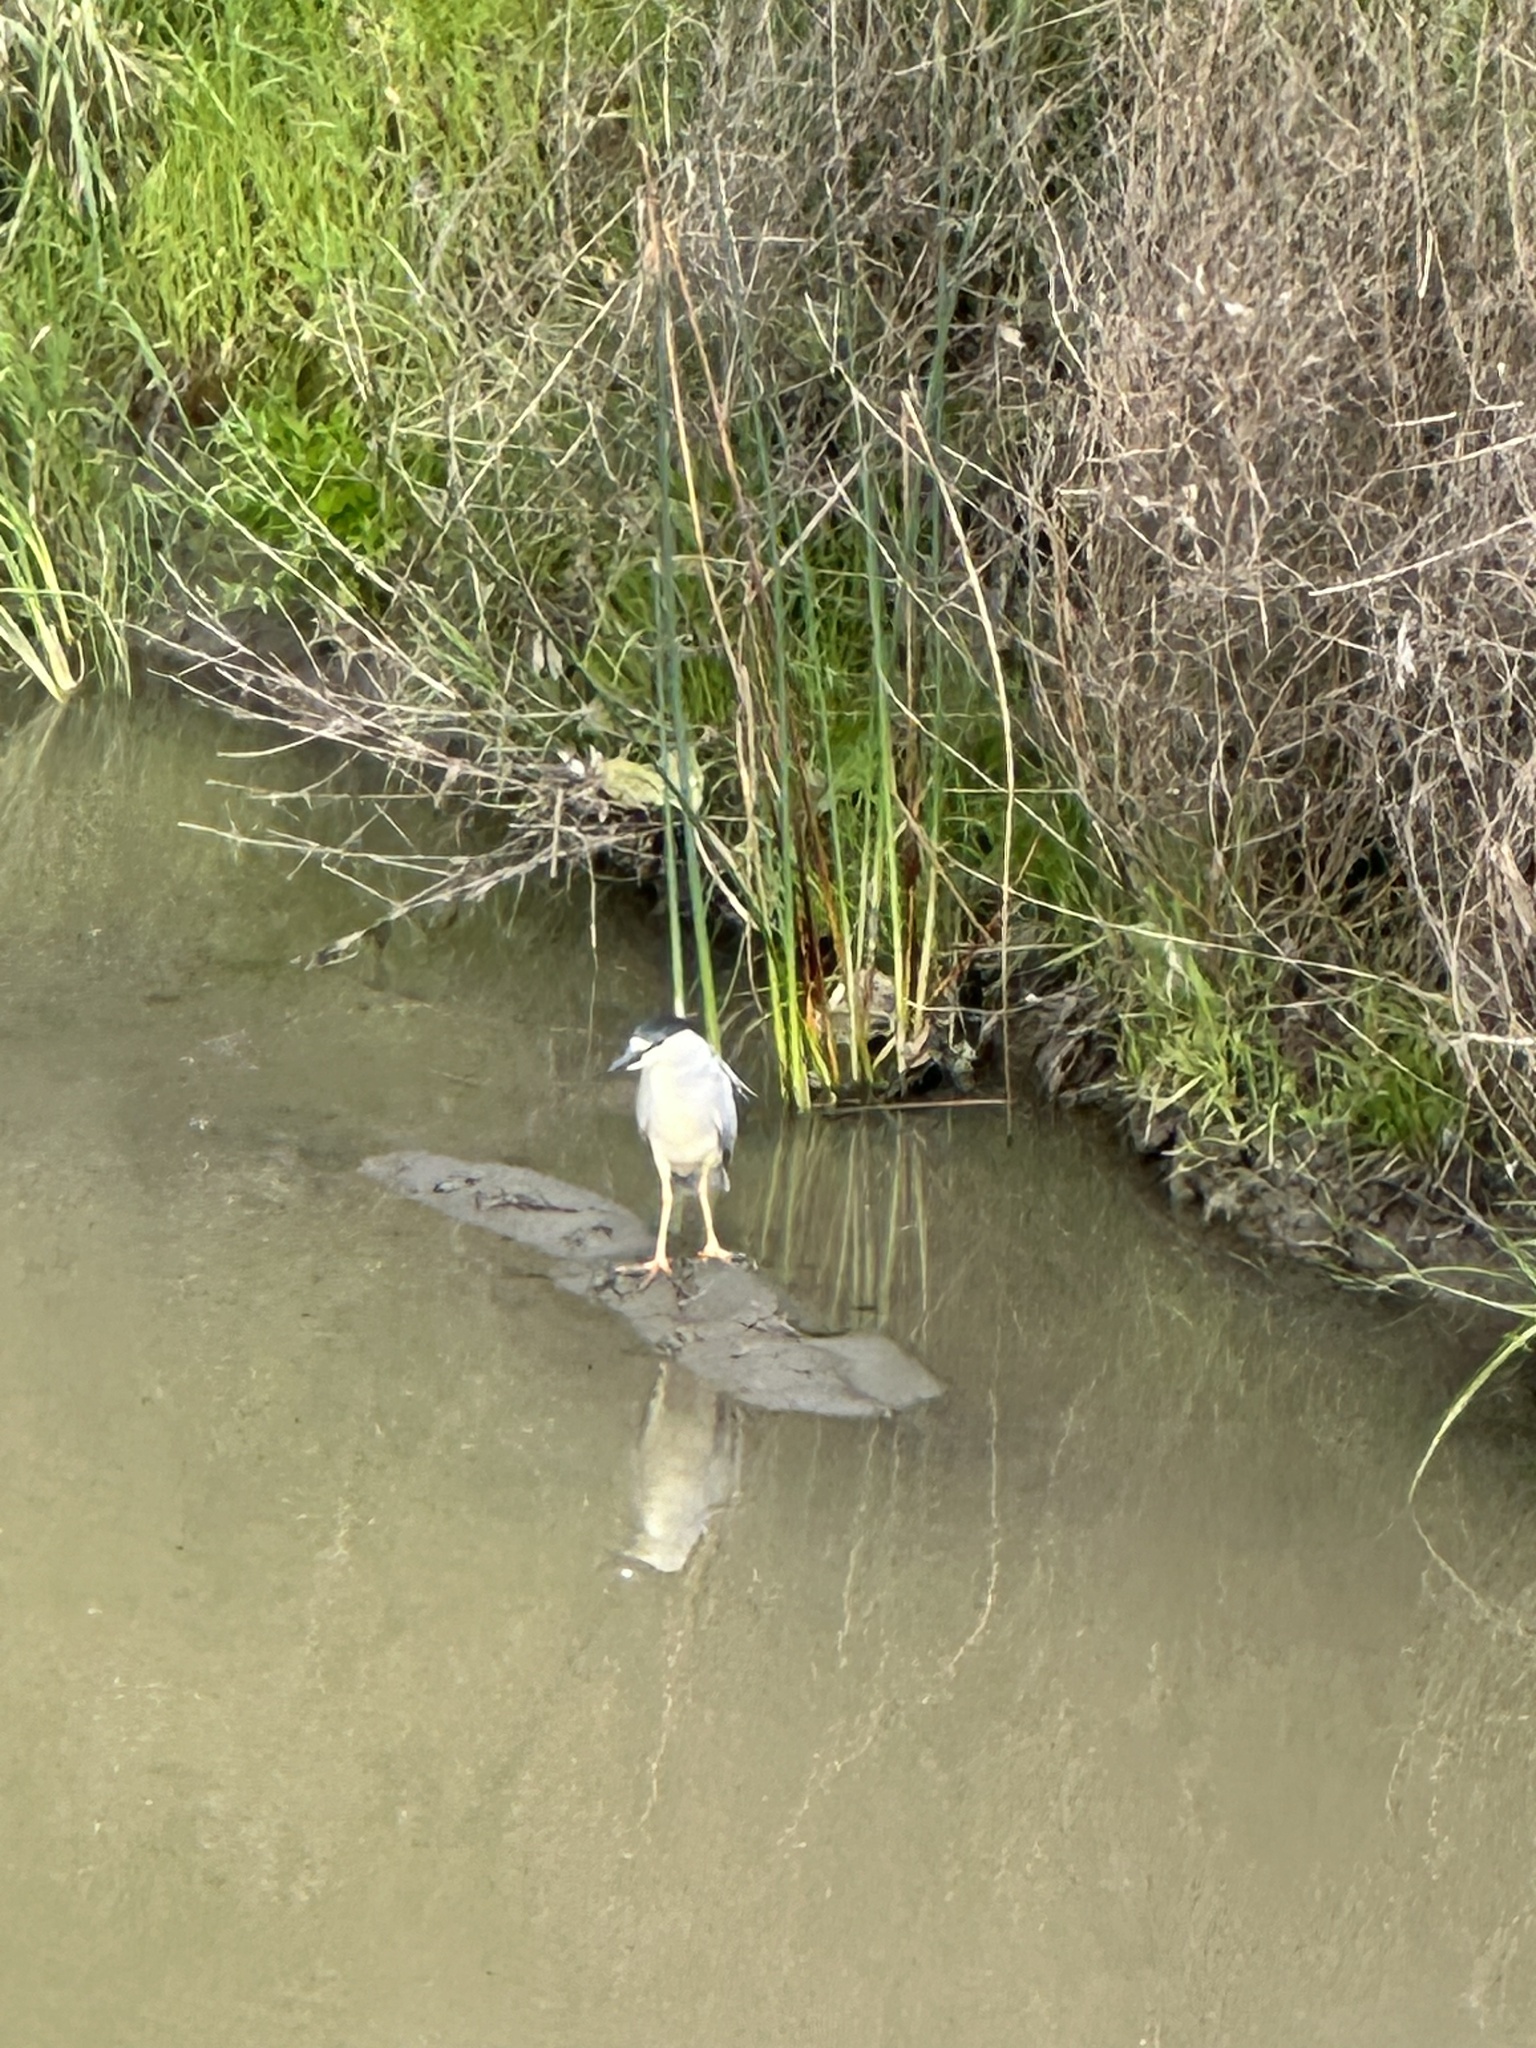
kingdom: Animalia
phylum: Chordata
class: Aves
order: Pelecaniformes
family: Ardeidae
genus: Nycticorax
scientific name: Nycticorax nycticorax
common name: Black-crowned night heron
